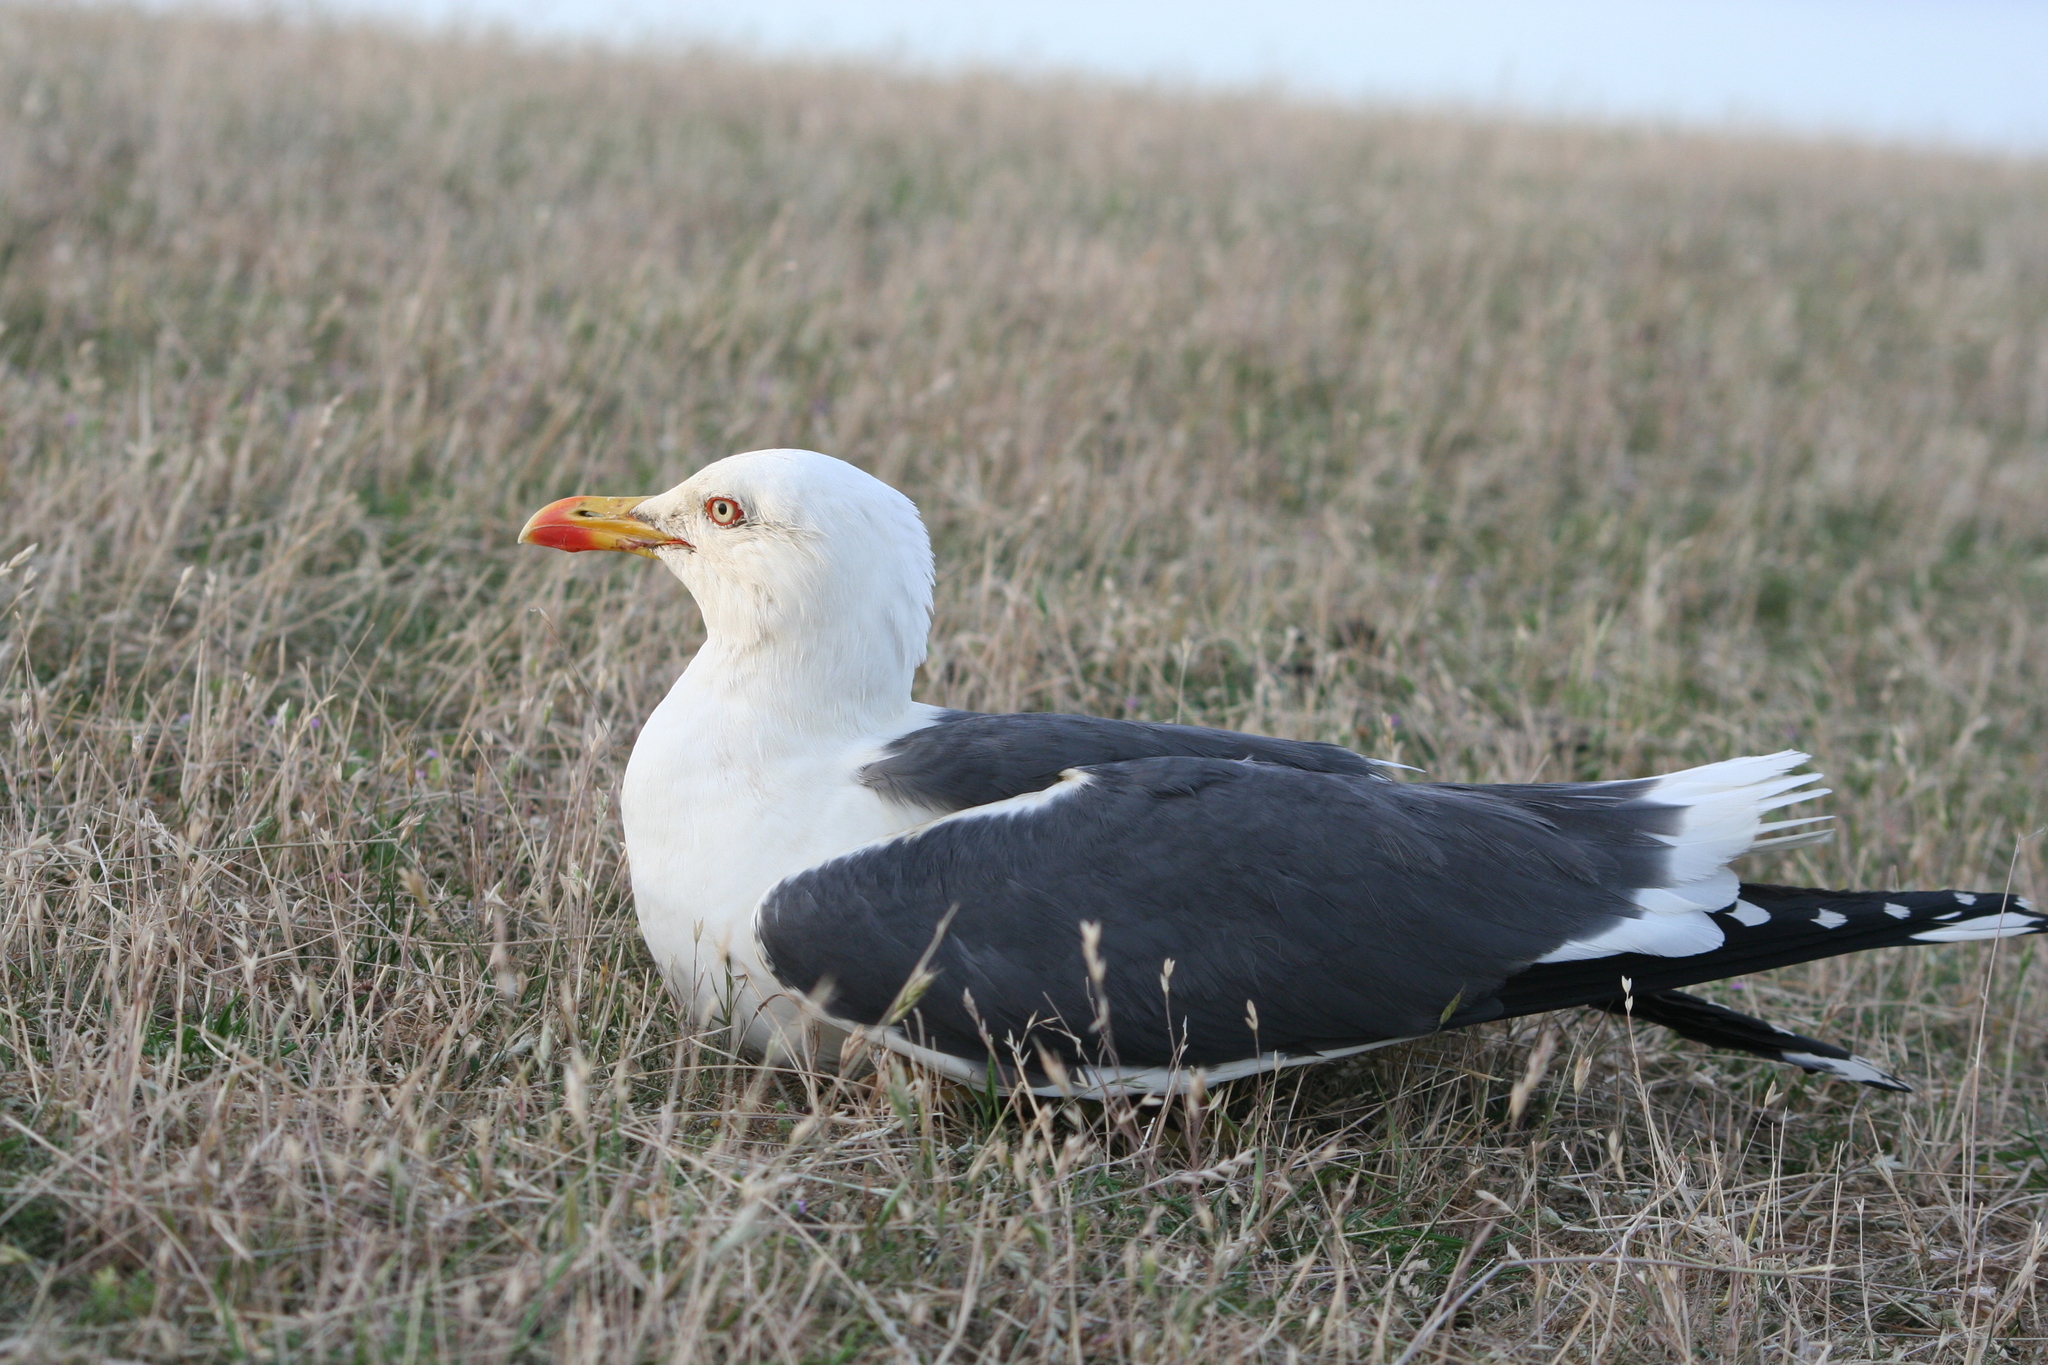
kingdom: Animalia
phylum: Chordata
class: Aves
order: Charadriiformes
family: Laridae
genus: Larus
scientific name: Larus fuscus
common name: Lesser black-backed gull
